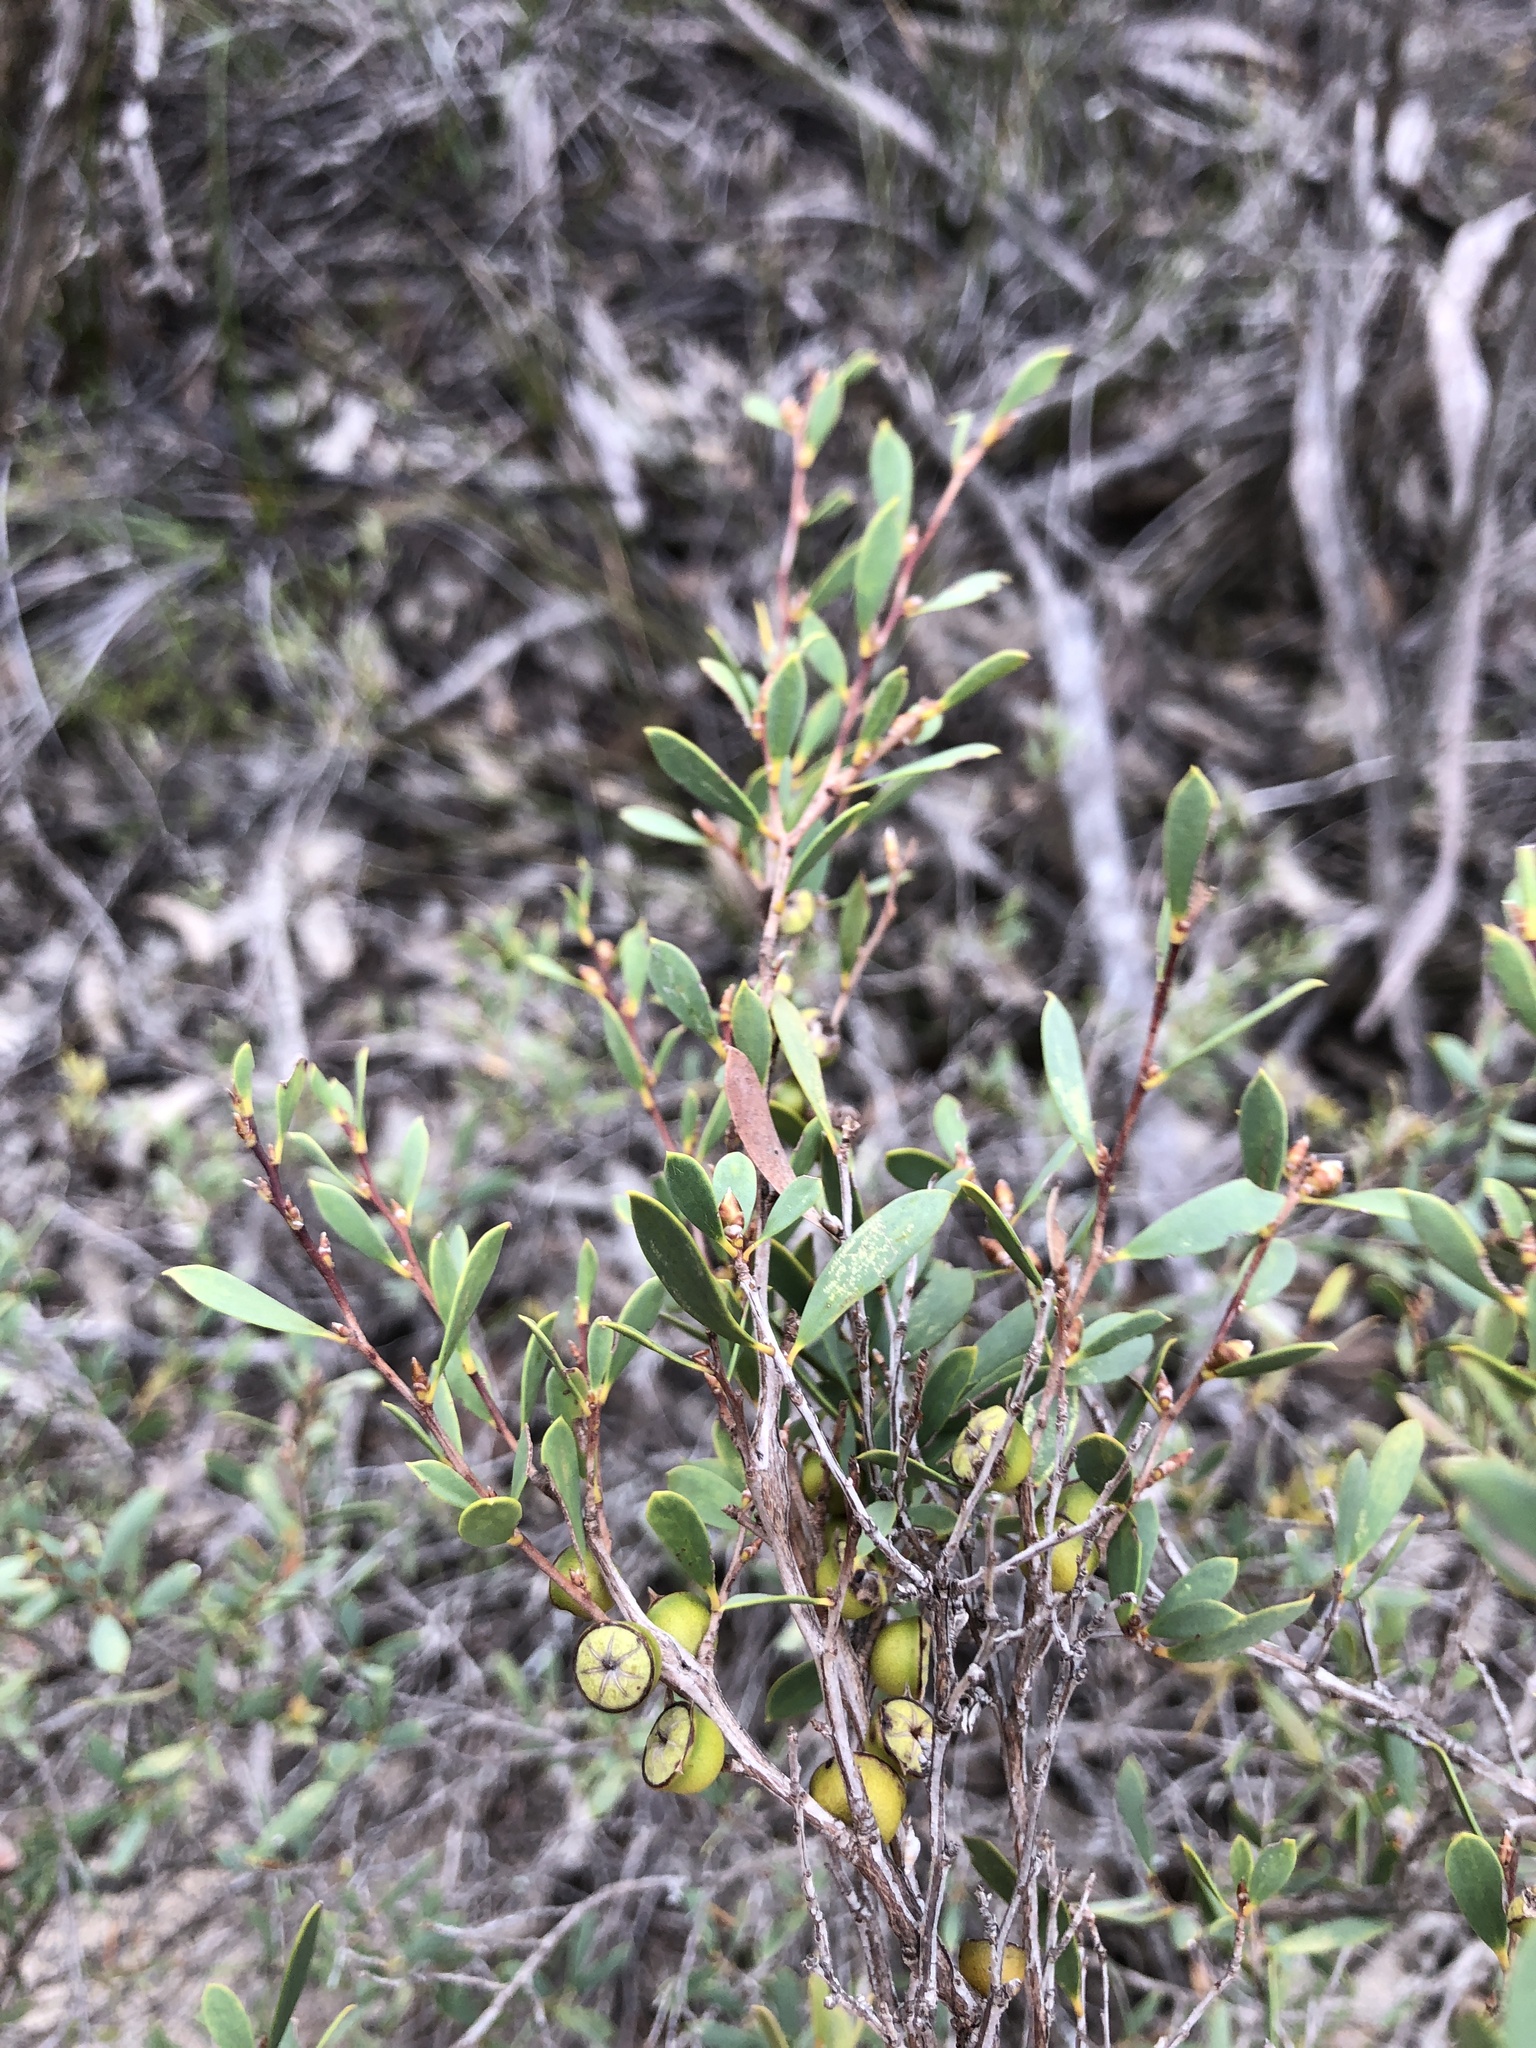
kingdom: Plantae
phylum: Tracheophyta
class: Magnoliopsida
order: Myrtales
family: Myrtaceae
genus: Leptospermum
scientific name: Leptospermum coriaceum
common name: Mallee teatree
